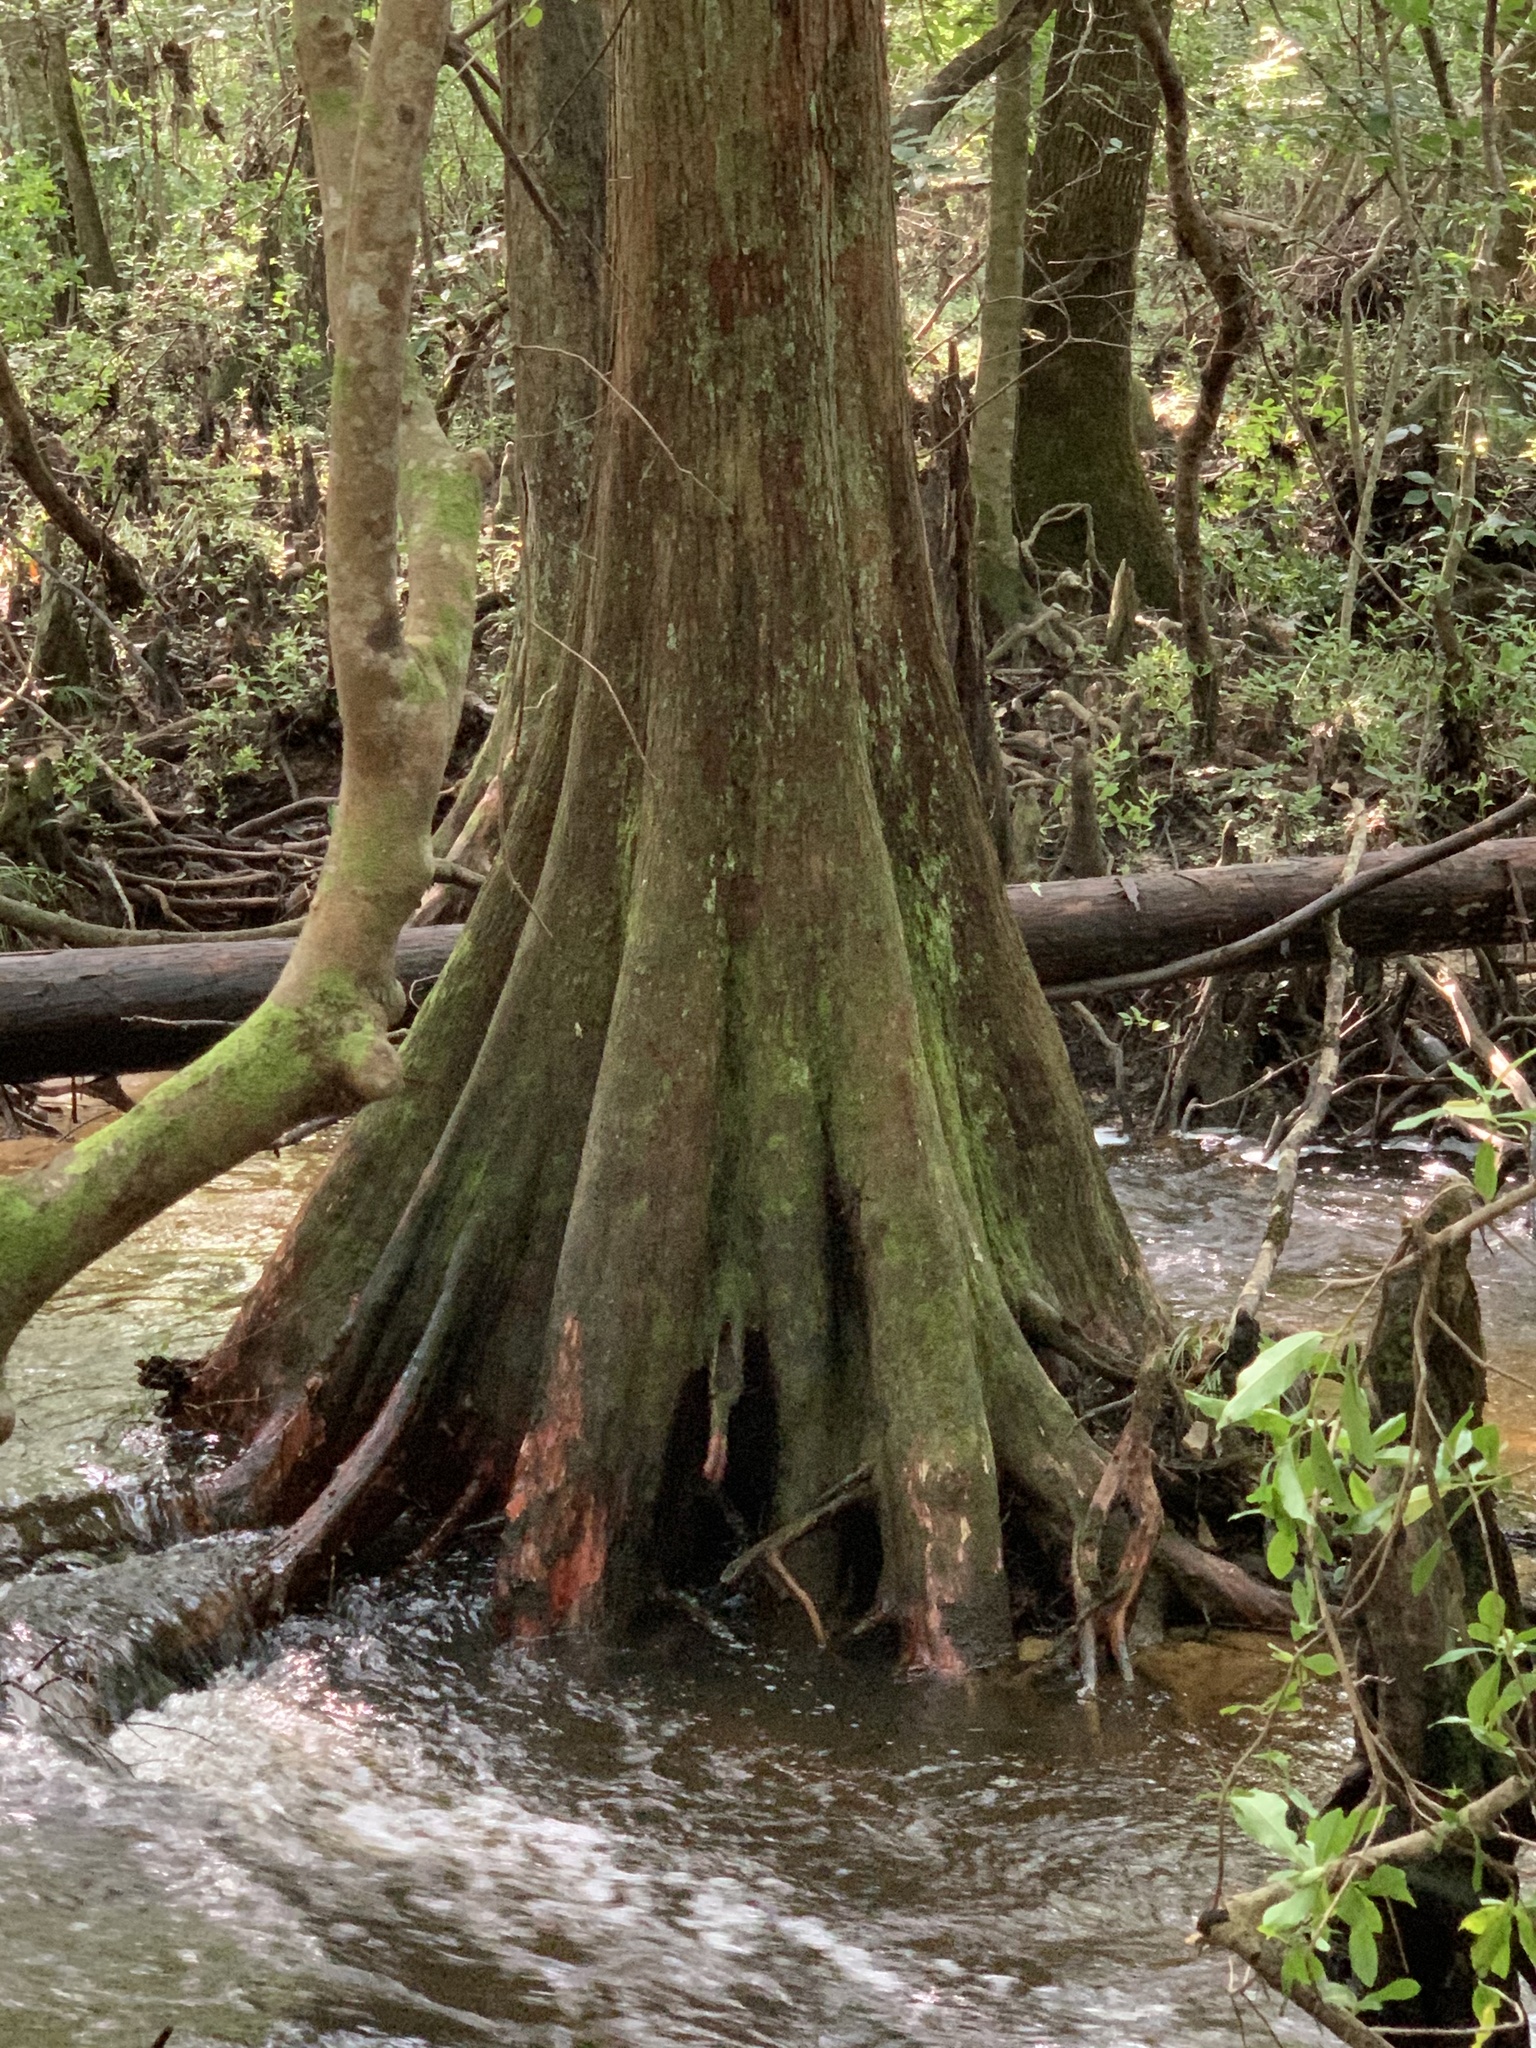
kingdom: Plantae
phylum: Tracheophyta
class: Pinopsida
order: Pinales
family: Cupressaceae
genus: Taxodium
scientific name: Taxodium distichum
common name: Bald cypress
